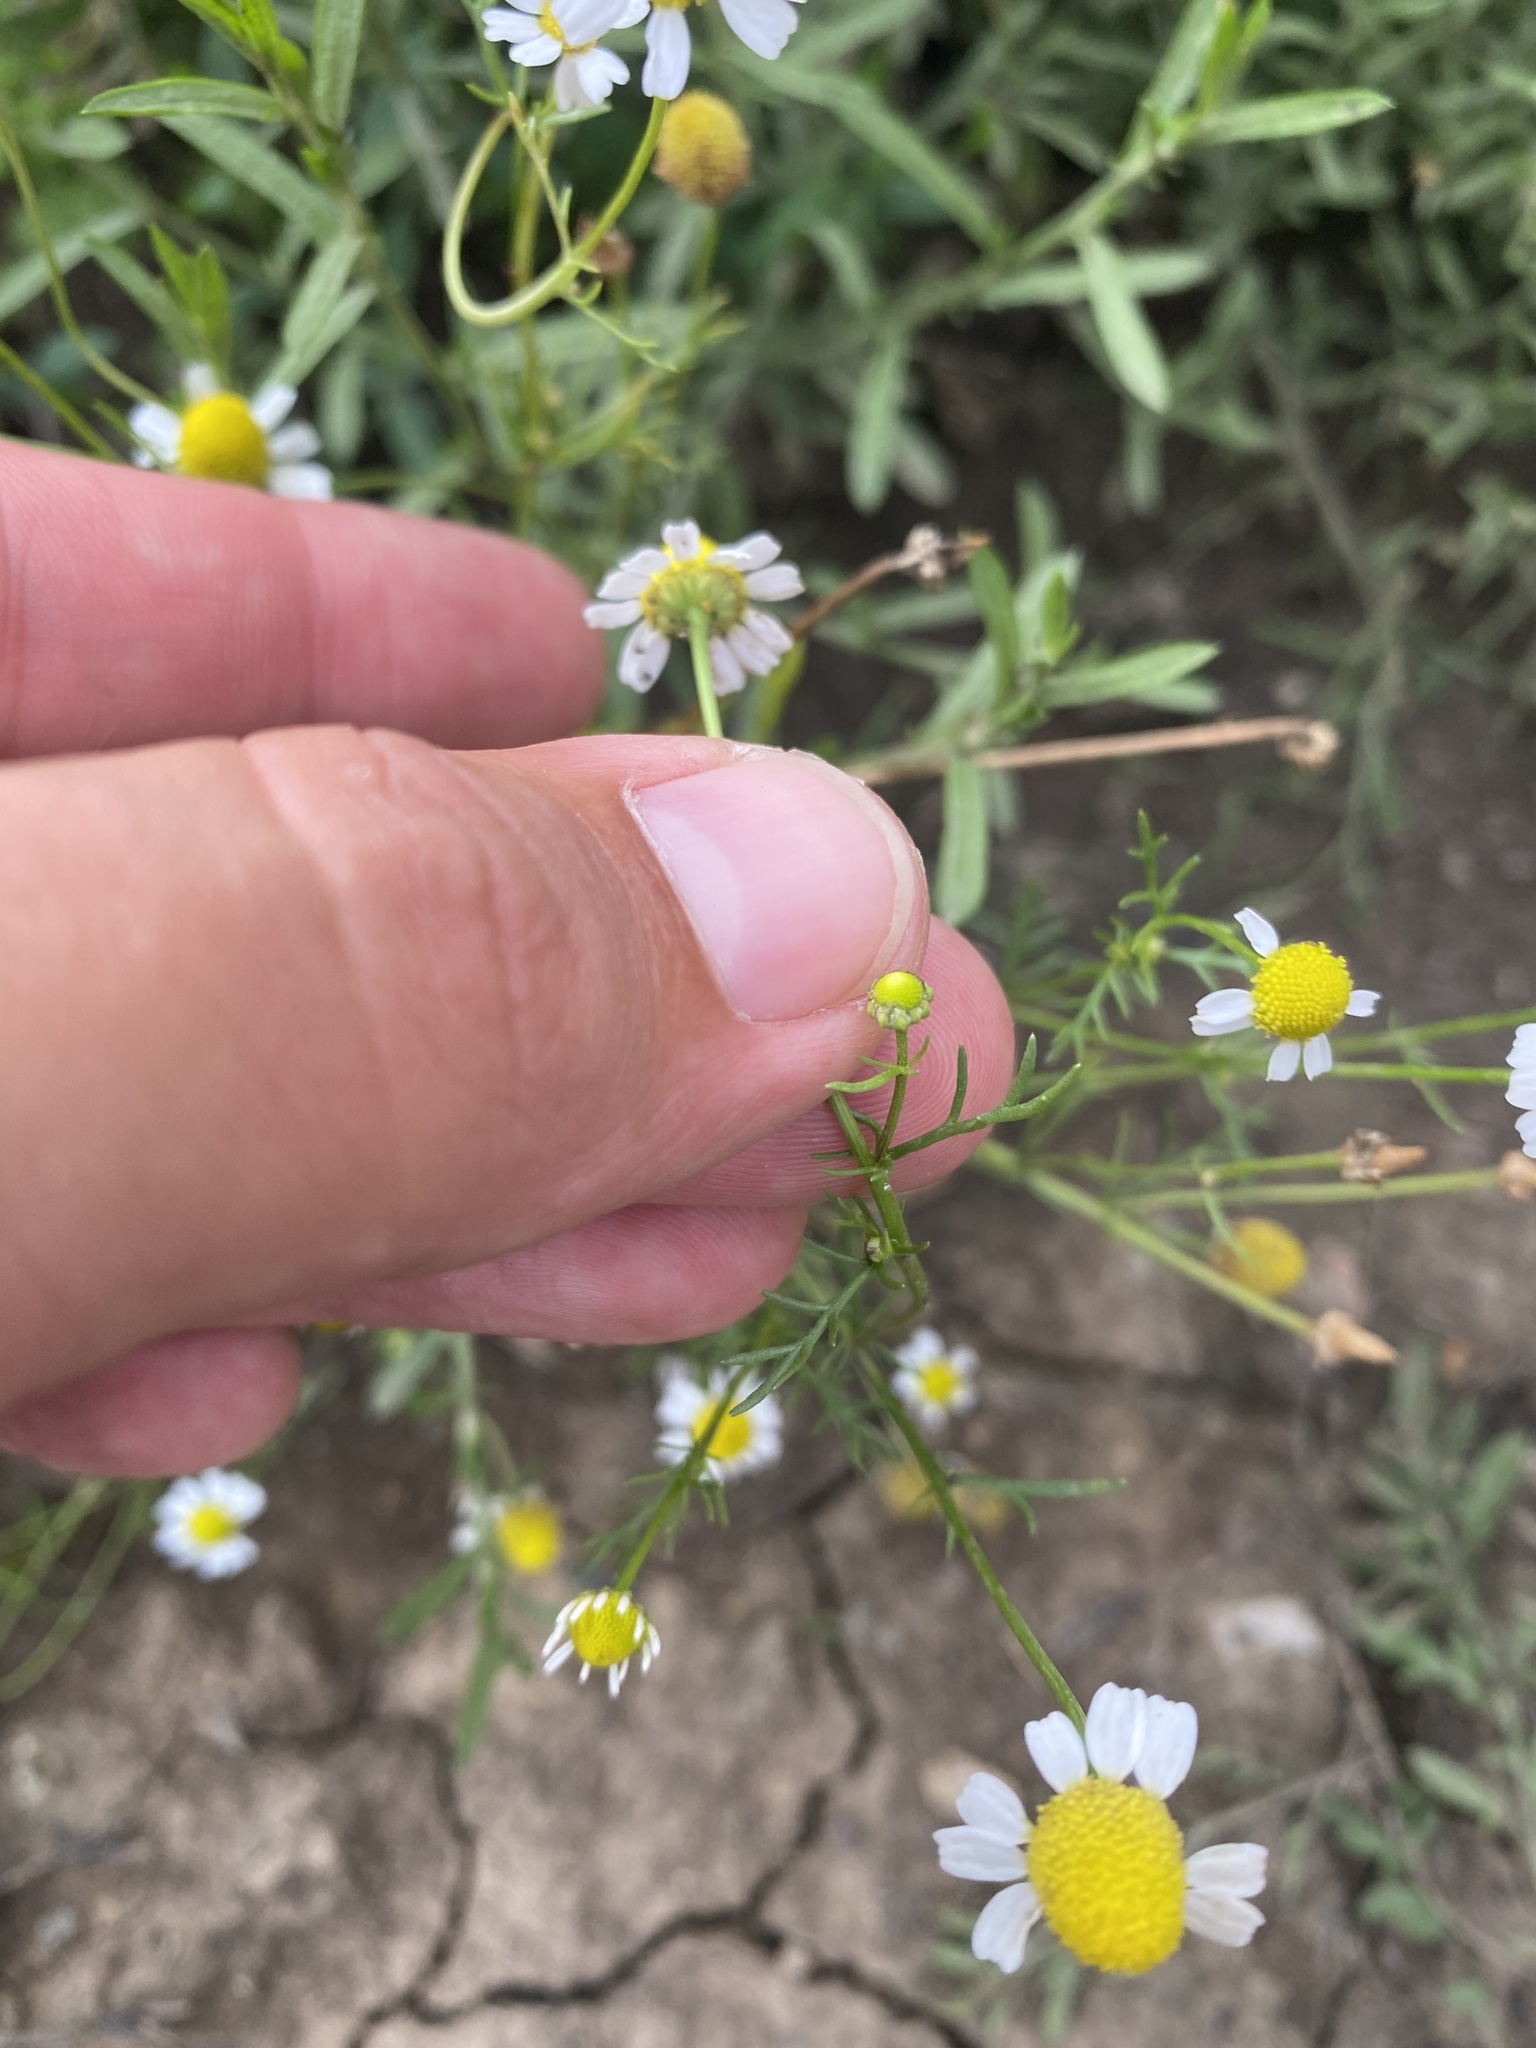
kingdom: Plantae
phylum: Tracheophyta
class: Magnoliopsida
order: Asterales
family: Asteraceae
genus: Matricaria
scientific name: Matricaria chamomilla
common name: Scented mayweed
